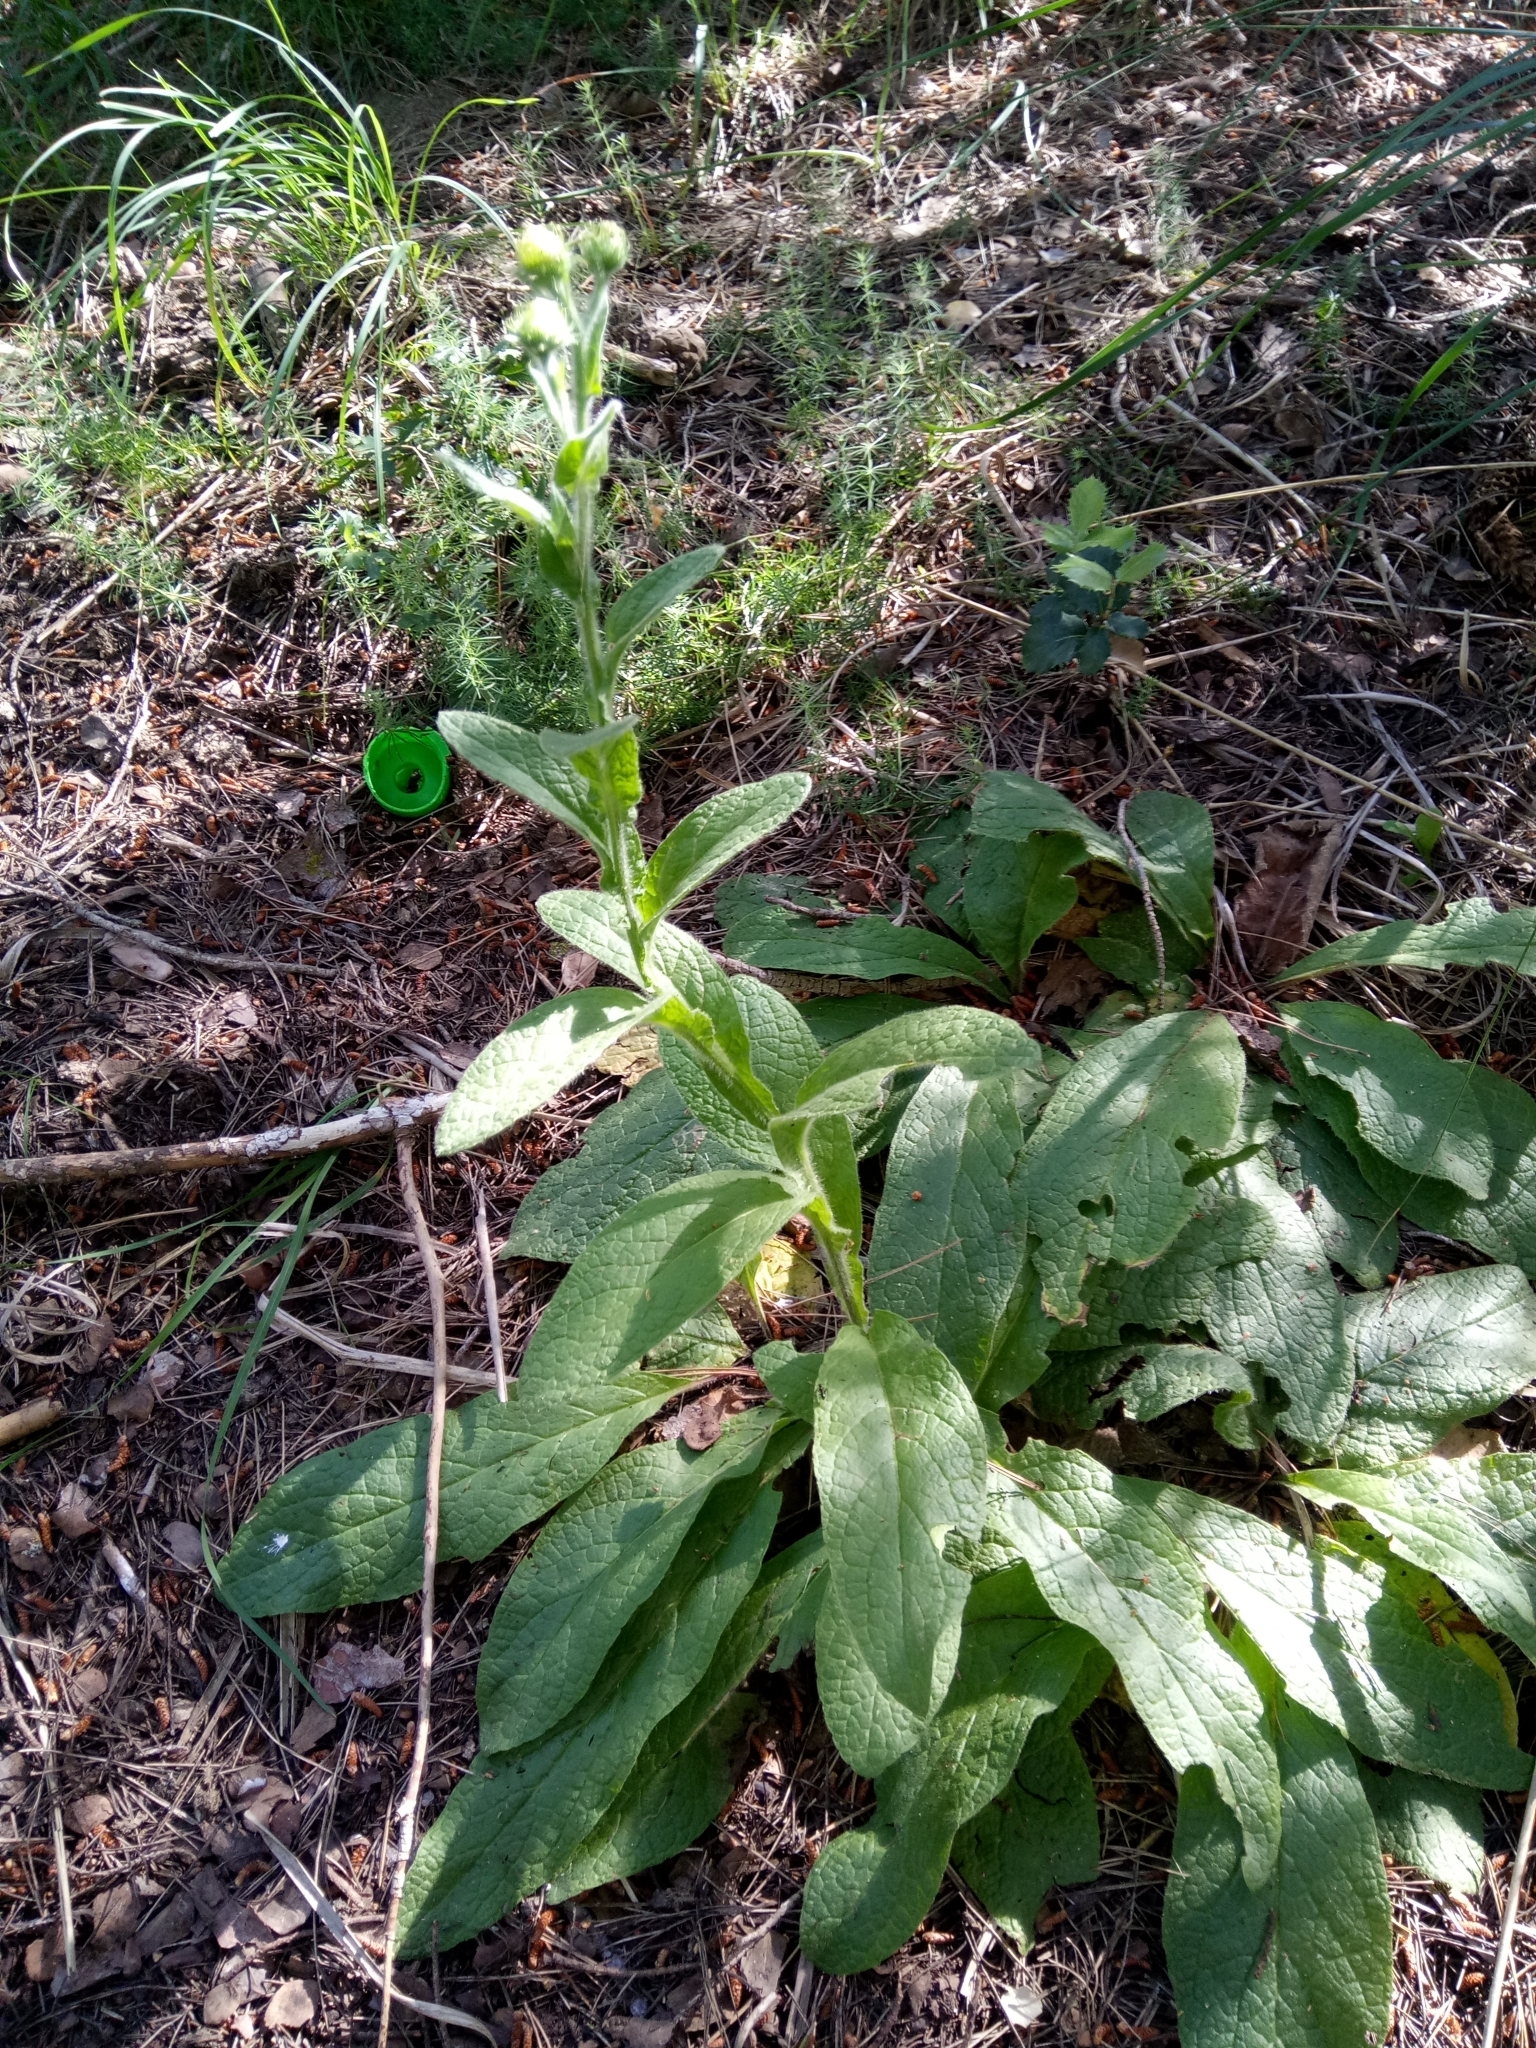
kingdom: Plantae
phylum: Tracheophyta
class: Magnoliopsida
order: Asterales
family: Asteraceae
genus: Pulicaria
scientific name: Pulicaria odora
